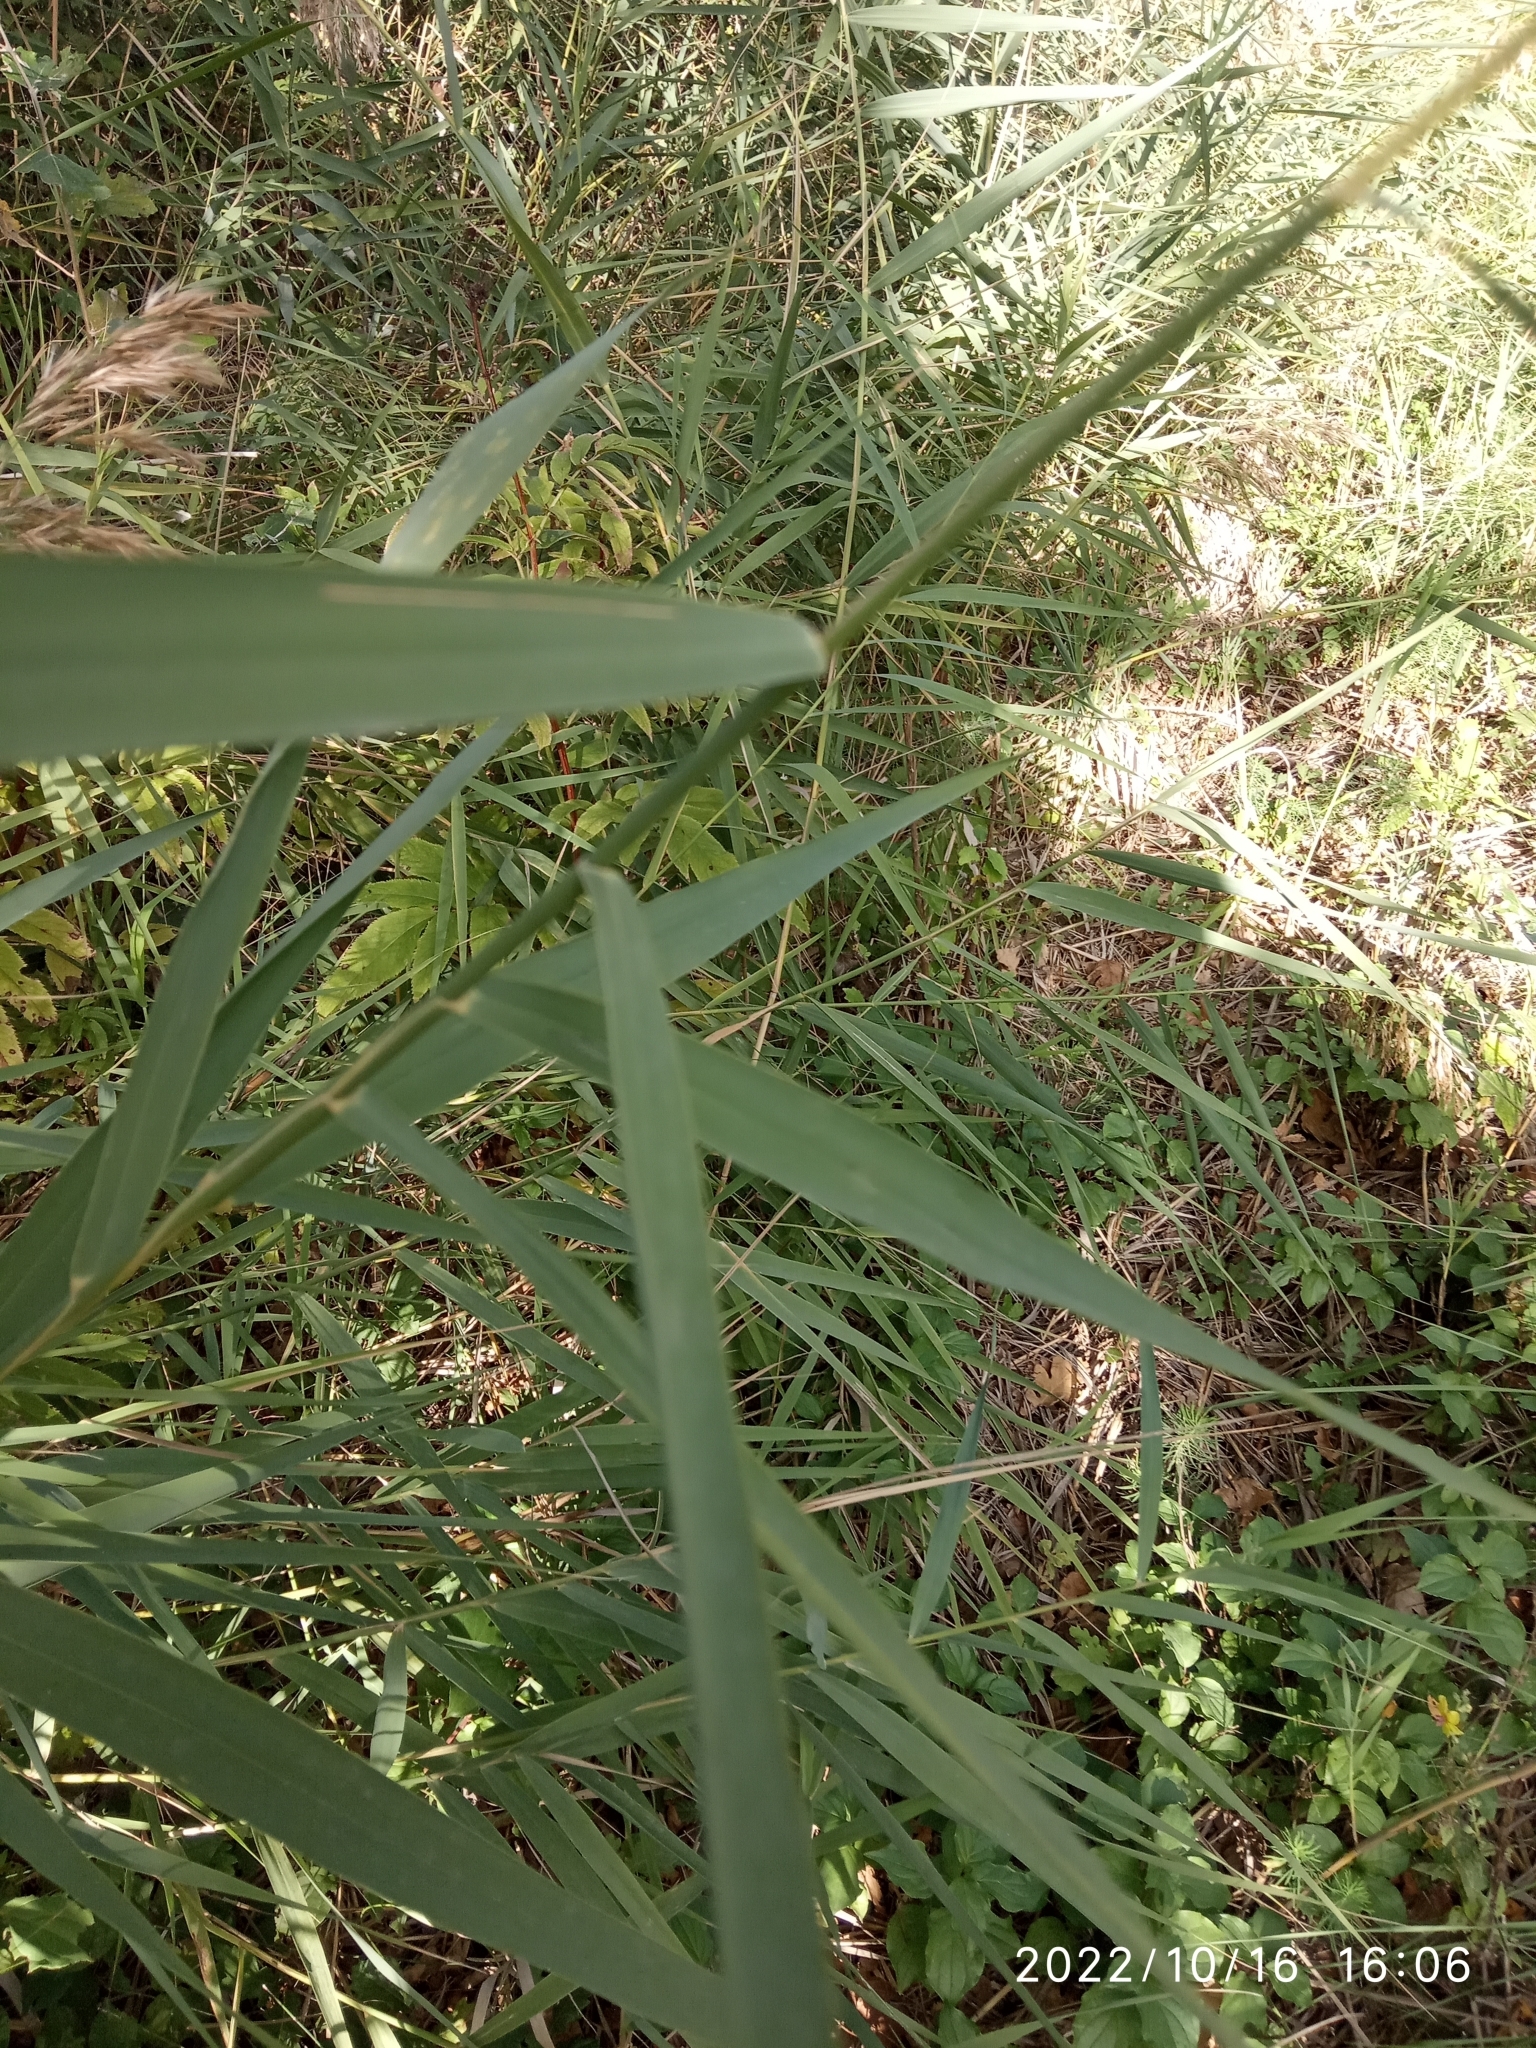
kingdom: Plantae
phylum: Tracheophyta
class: Liliopsida
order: Poales
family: Poaceae
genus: Phragmites
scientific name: Phragmites australis
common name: Common reed
